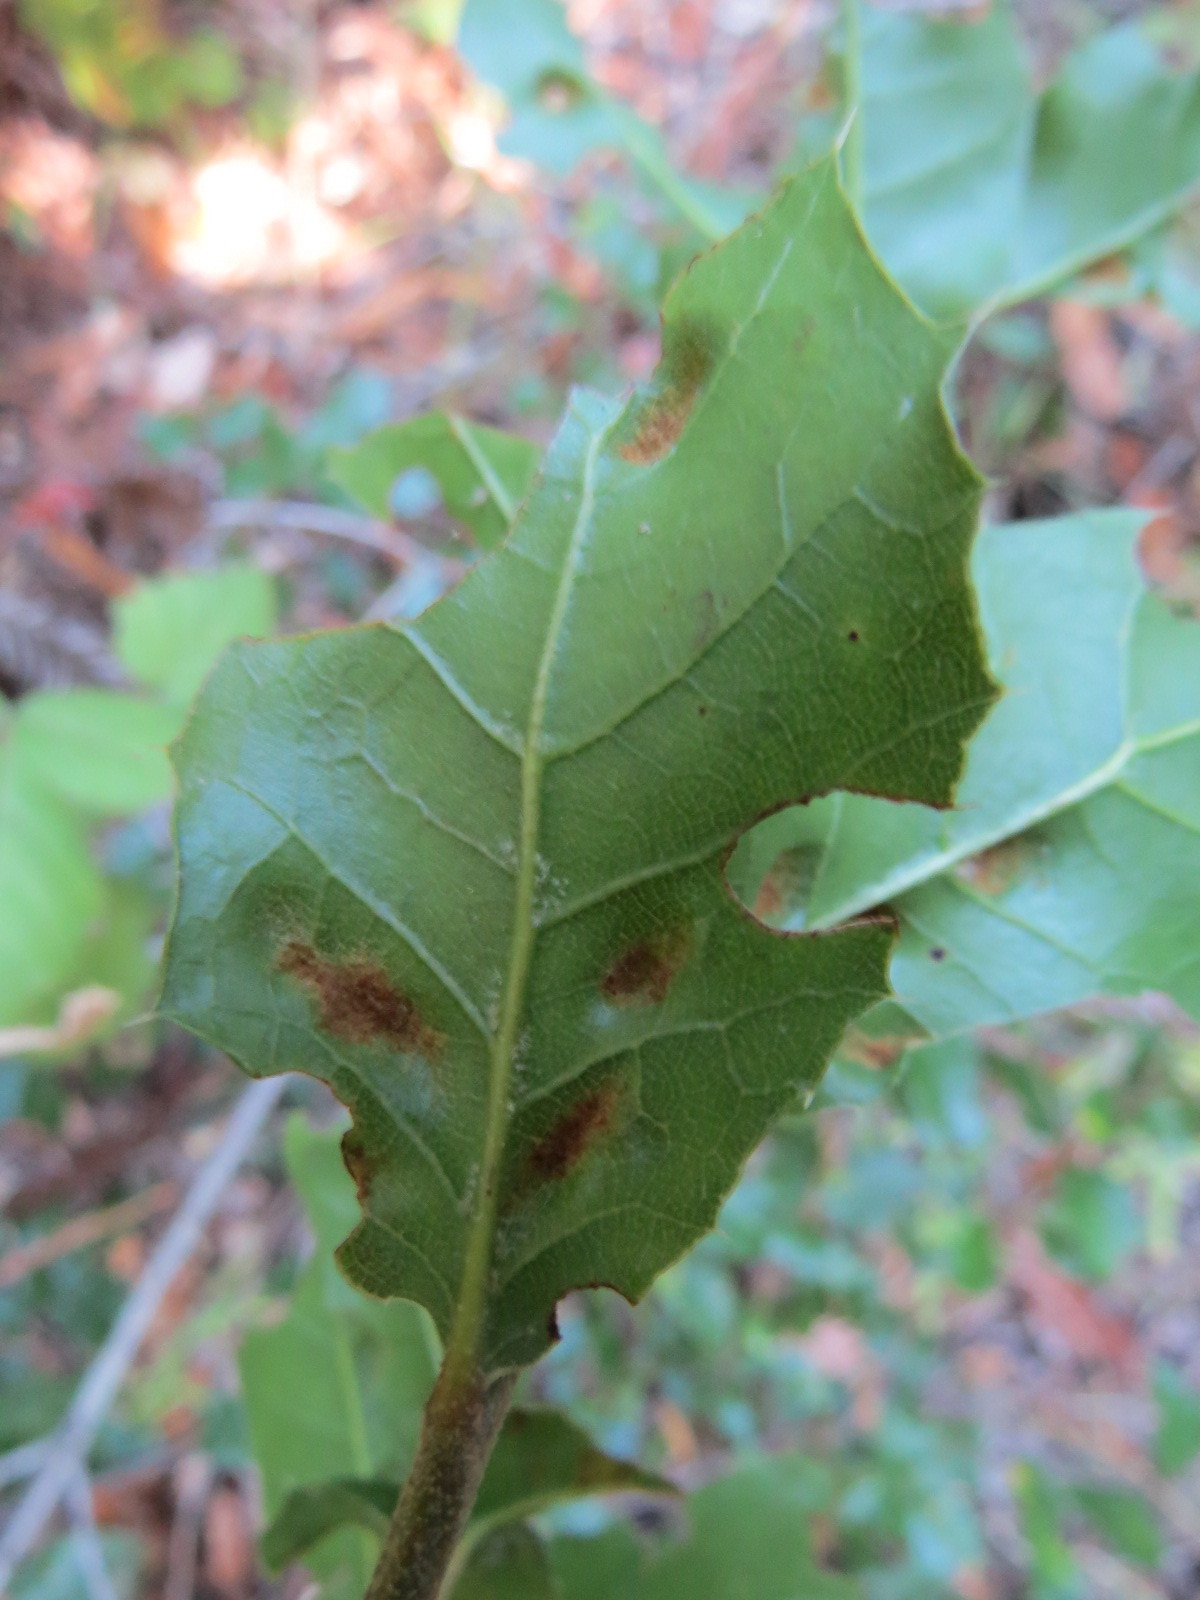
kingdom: Animalia
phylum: Arthropoda
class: Arachnida
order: Trombidiformes
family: Eriophyidae
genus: Aceria
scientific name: Aceria
